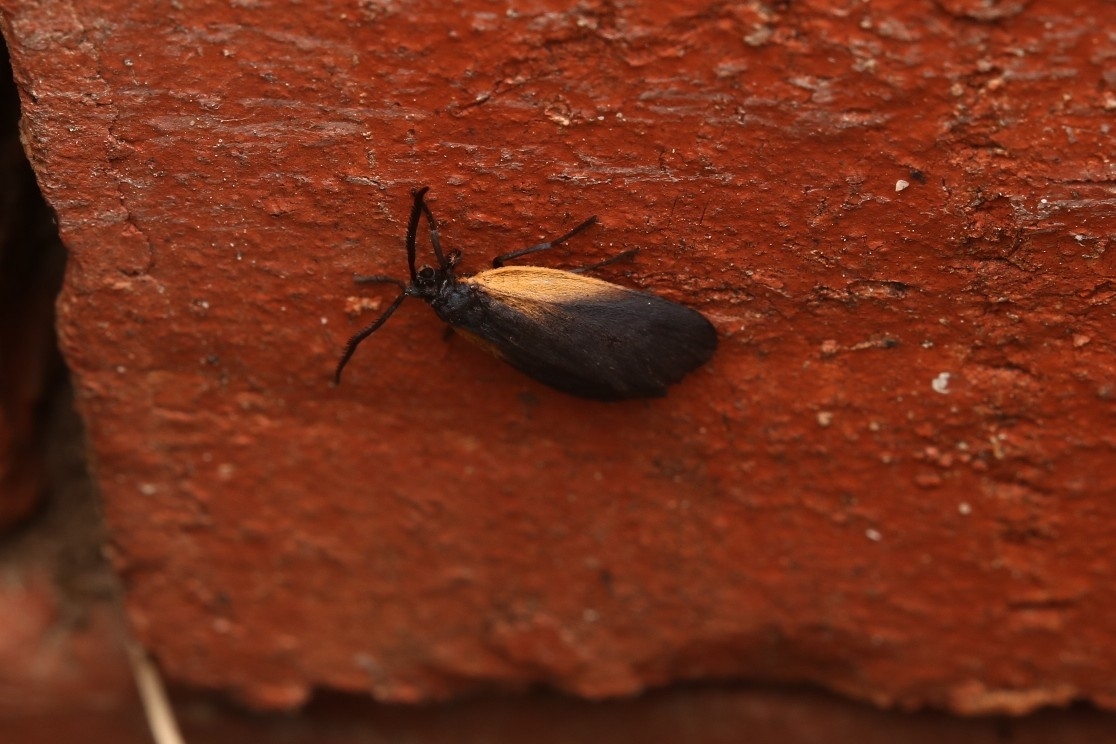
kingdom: Animalia
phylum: Arthropoda
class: Insecta
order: Lepidoptera
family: Zygaenidae
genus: Malthaca
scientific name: Malthaca dimidiata
